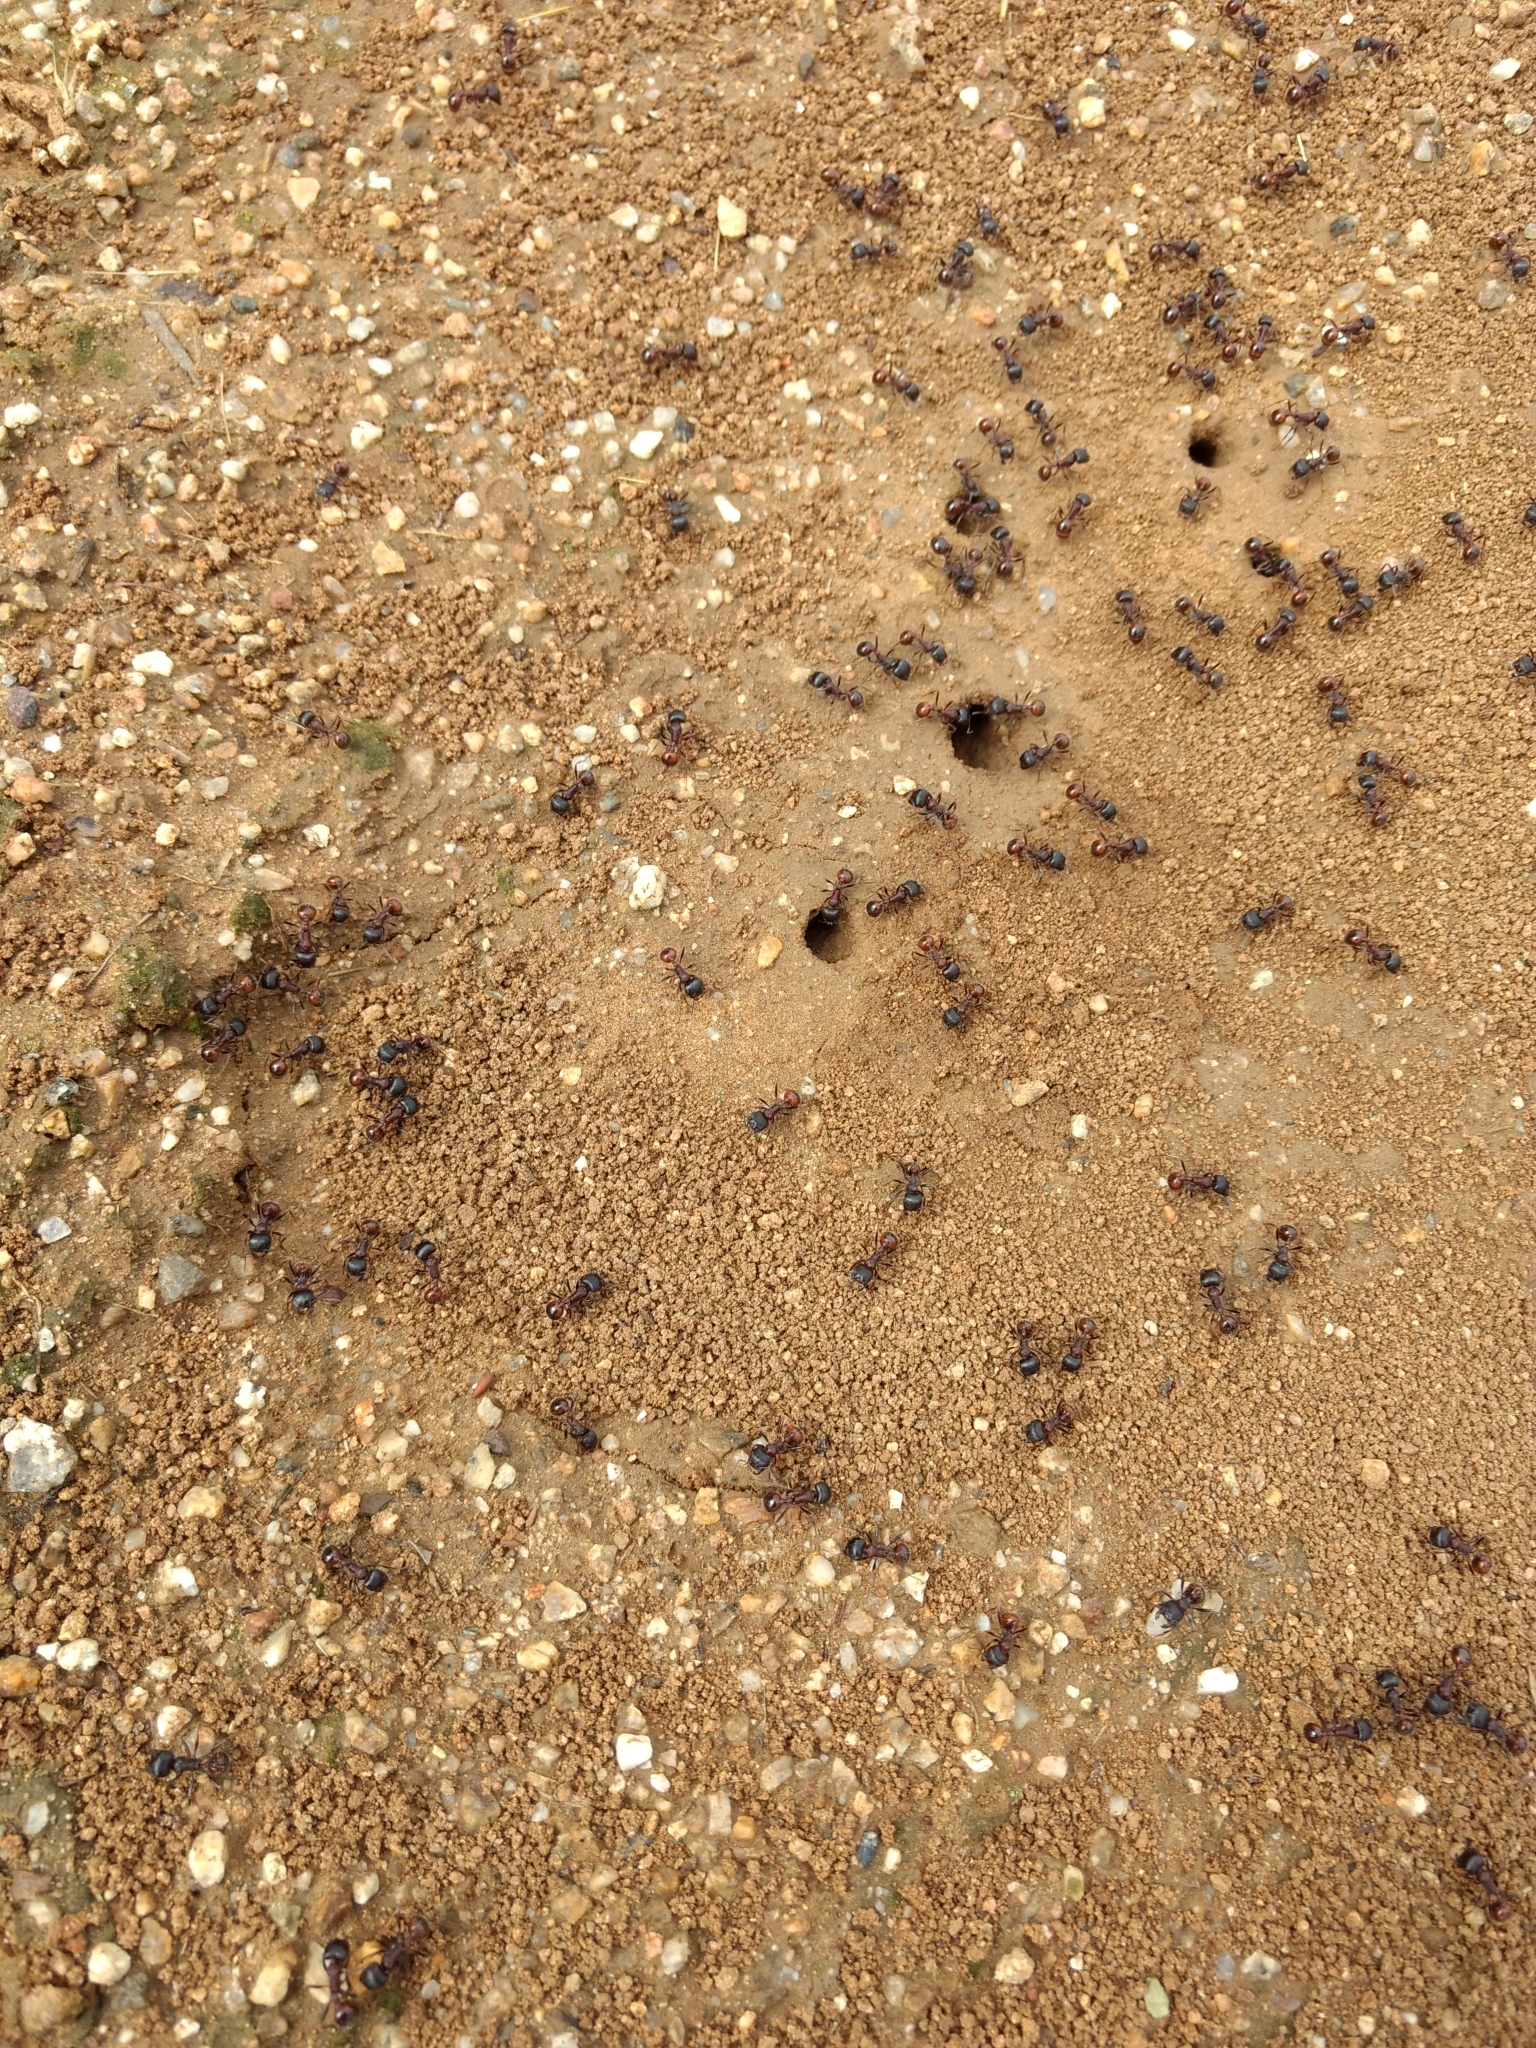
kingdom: Animalia
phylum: Arthropoda
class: Insecta
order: Hymenoptera
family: Formicidae
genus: Pogonomyrmex
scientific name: Pogonomyrmex rugosus
